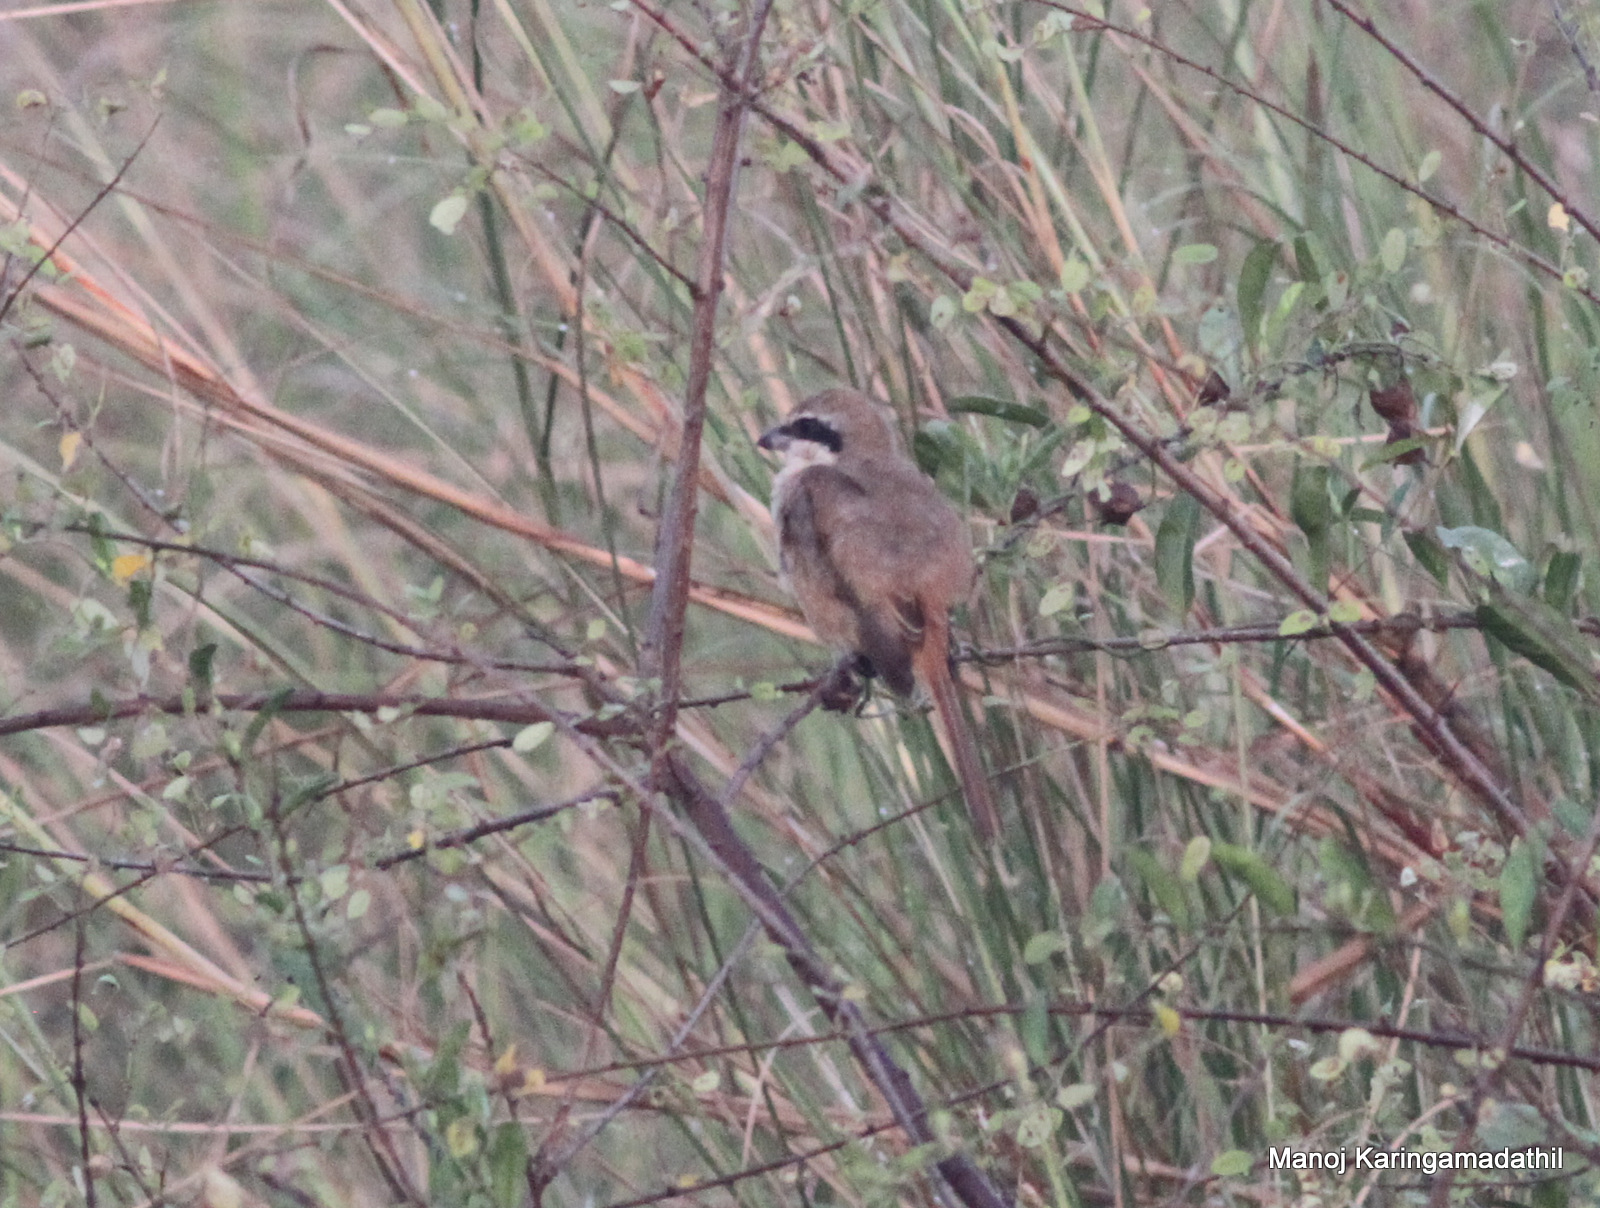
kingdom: Animalia
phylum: Chordata
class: Aves
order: Passeriformes
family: Laniidae
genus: Lanius
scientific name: Lanius cristatus
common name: Brown shrike
